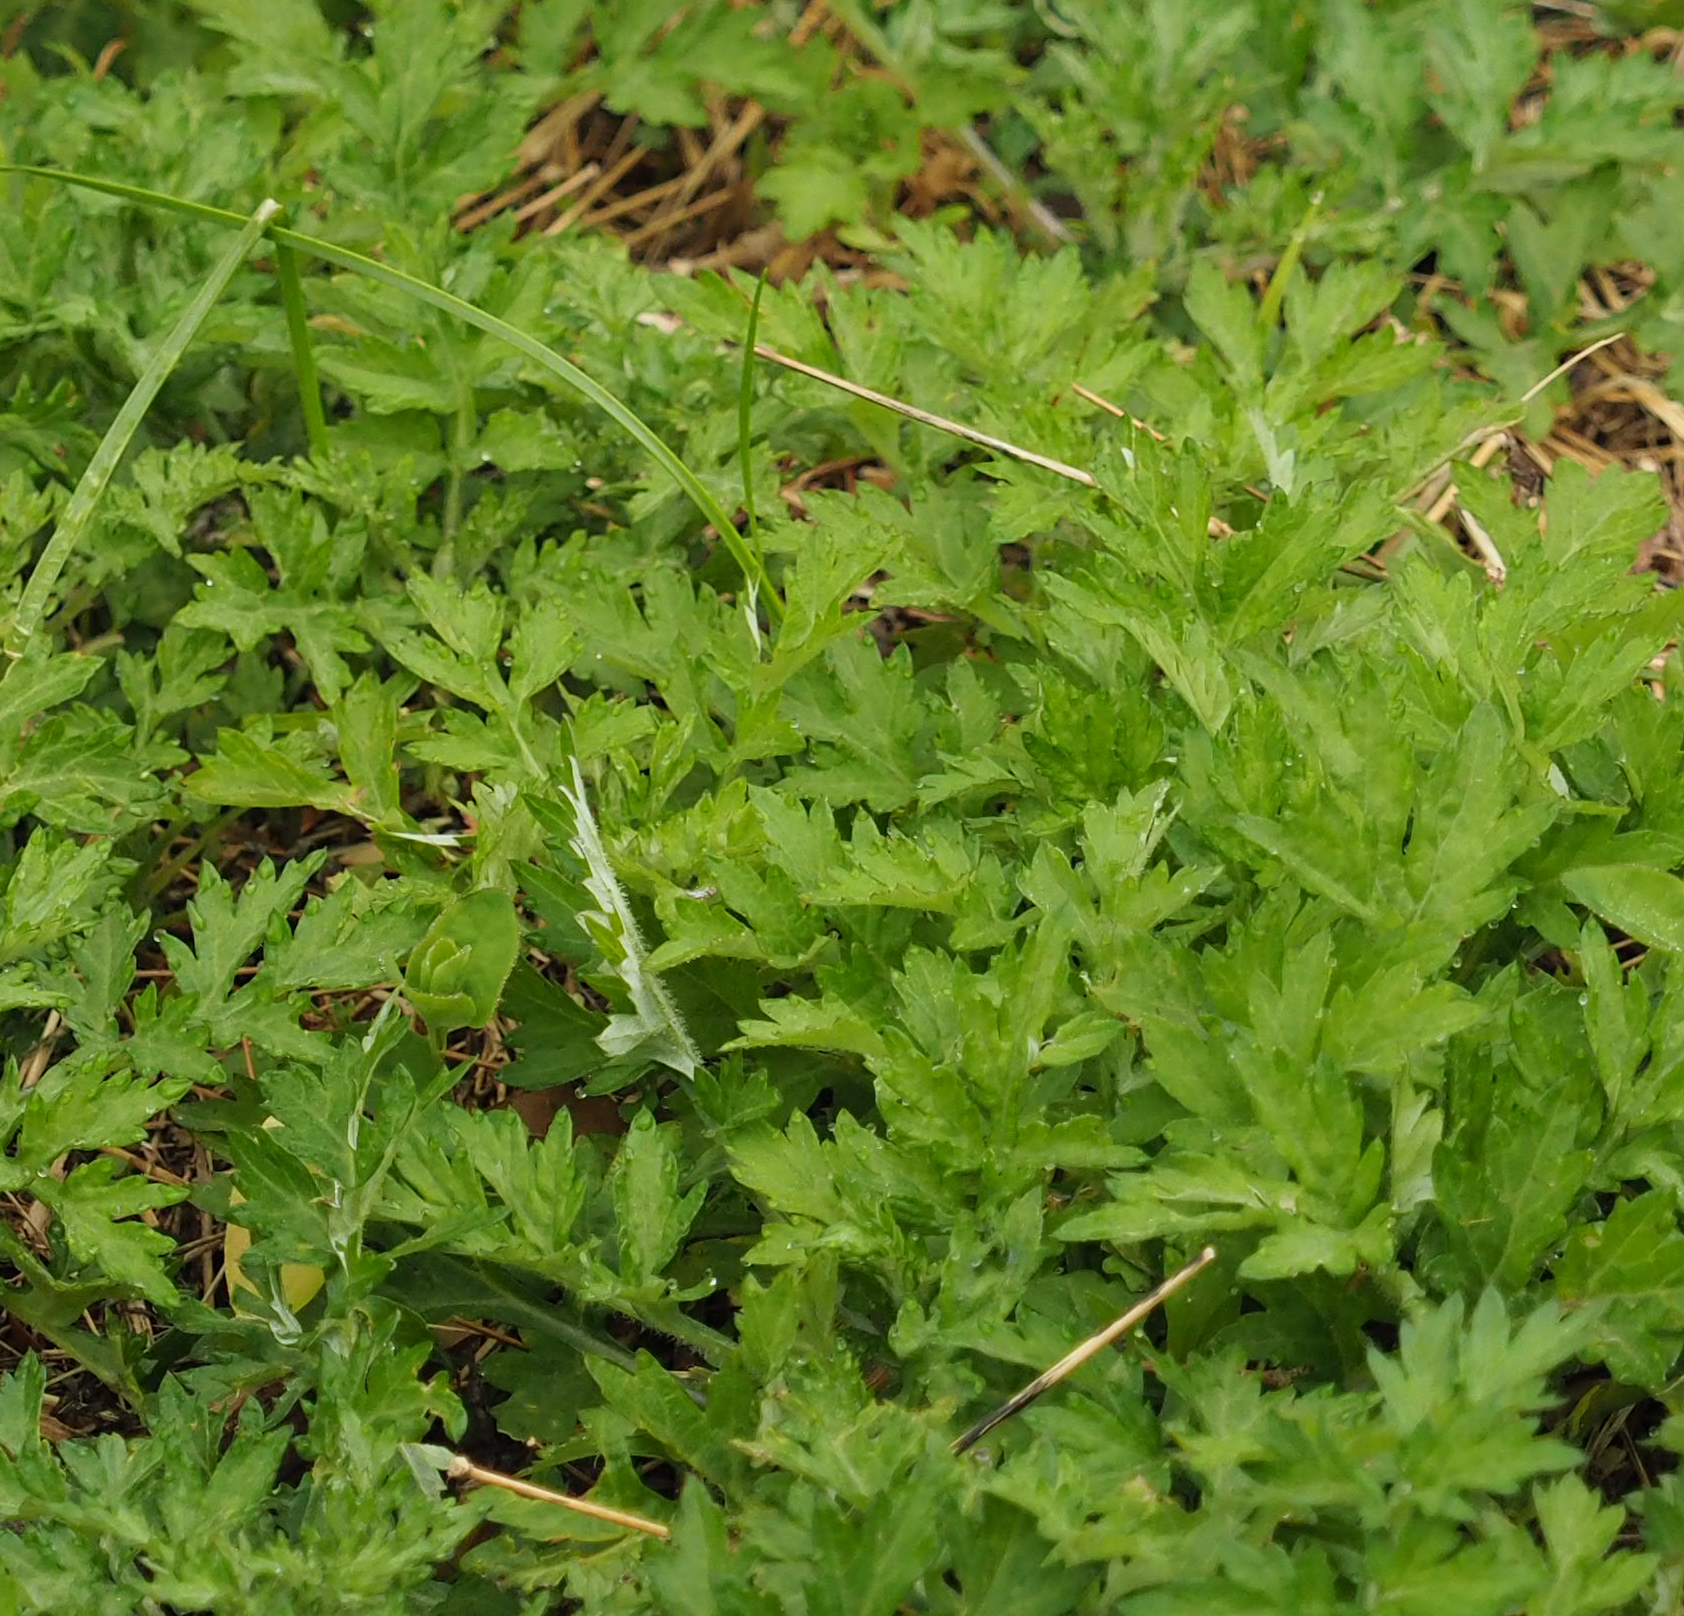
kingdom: Plantae
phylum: Tracheophyta
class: Magnoliopsida
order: Asterales
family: Asteraceae
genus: Artemisia
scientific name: Artemisia vulgaris
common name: Mugwort
